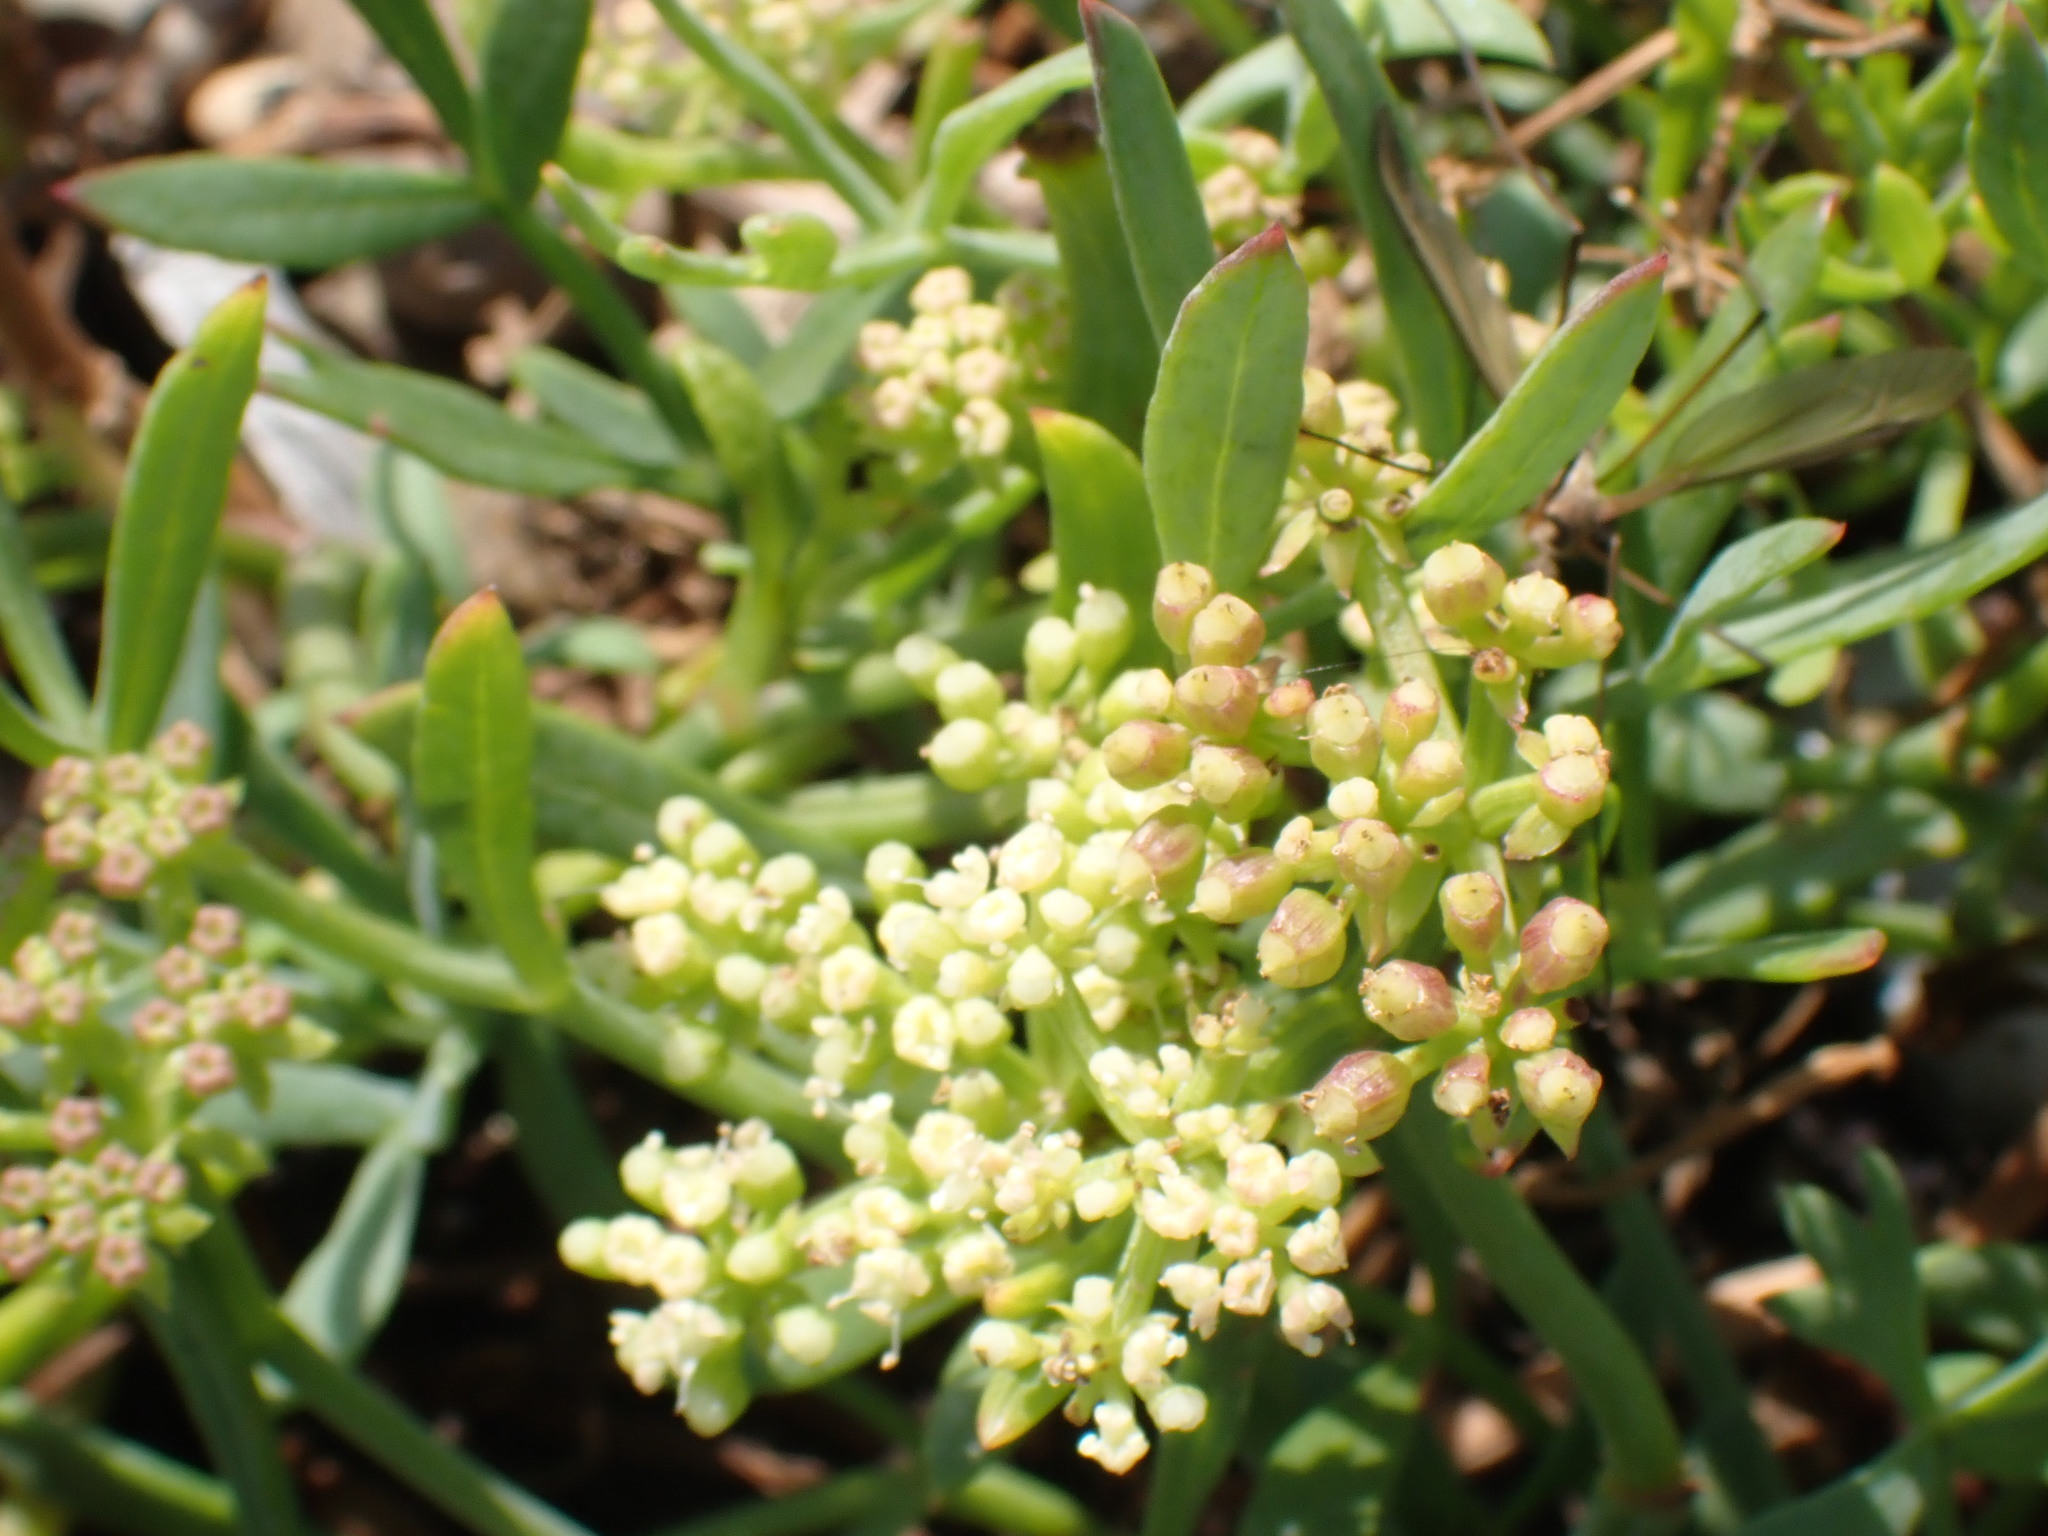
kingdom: Plantae
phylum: Tracheophyta
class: Magnoliopsida
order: Apiales
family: Apiaceae
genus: Crithmum
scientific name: Crithmum maritimum
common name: Rock samphire
